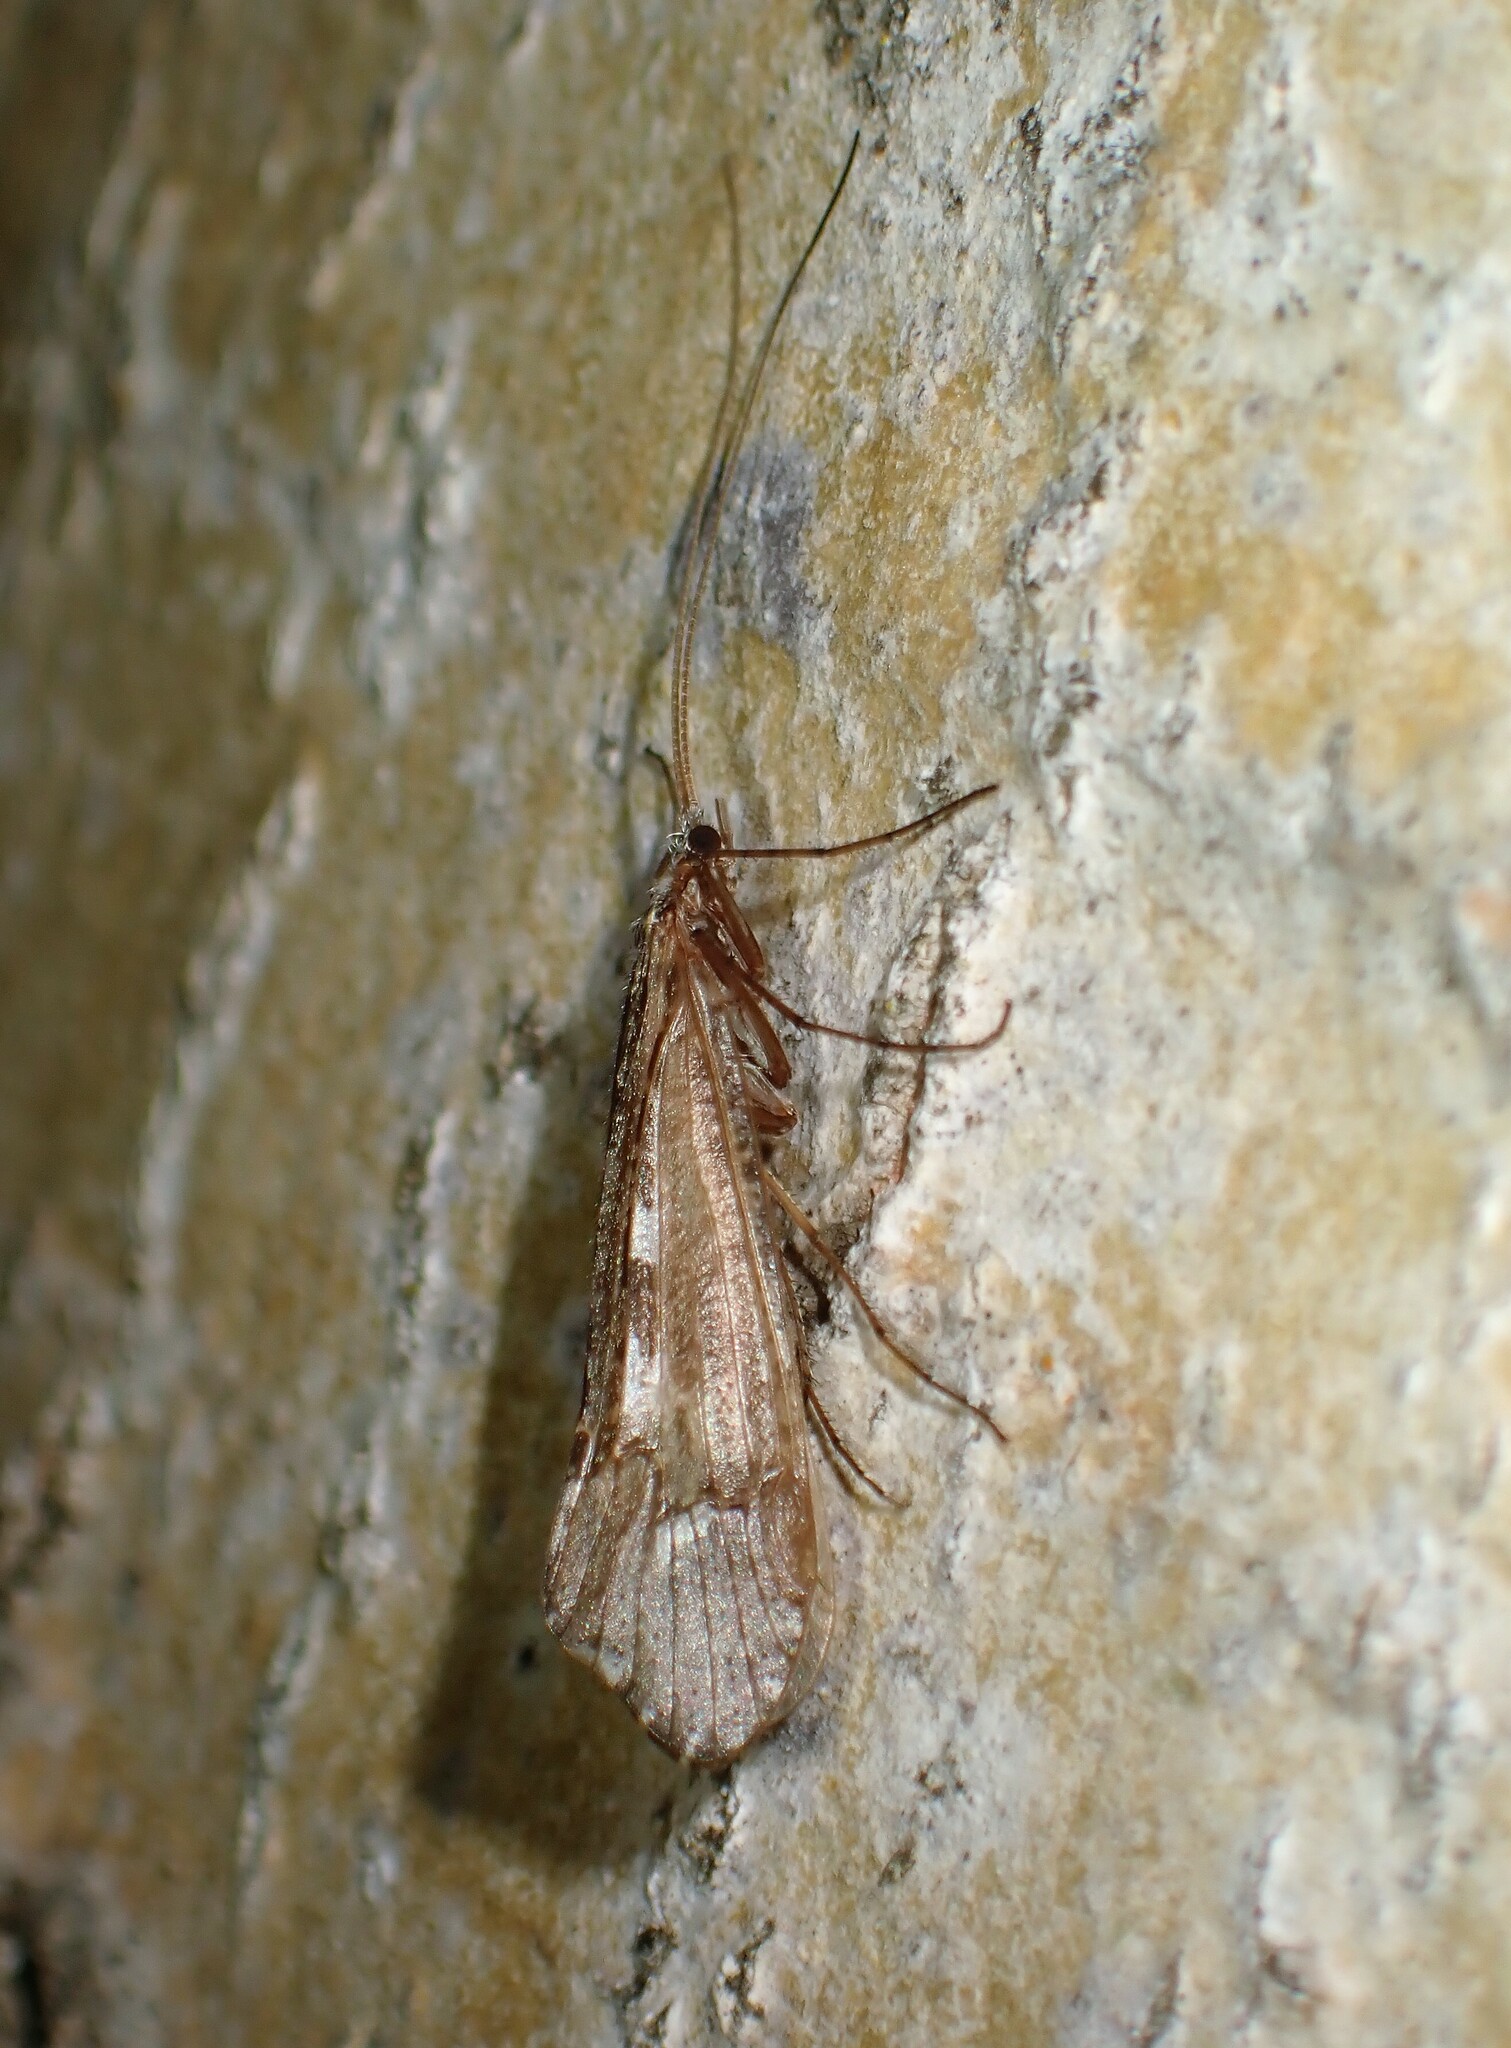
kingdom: Animalia
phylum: Arthropoda
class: Insecta
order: Trichoptera
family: Limnephilidae
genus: Glyphopsyche
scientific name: Glyphopsyche irrorata
